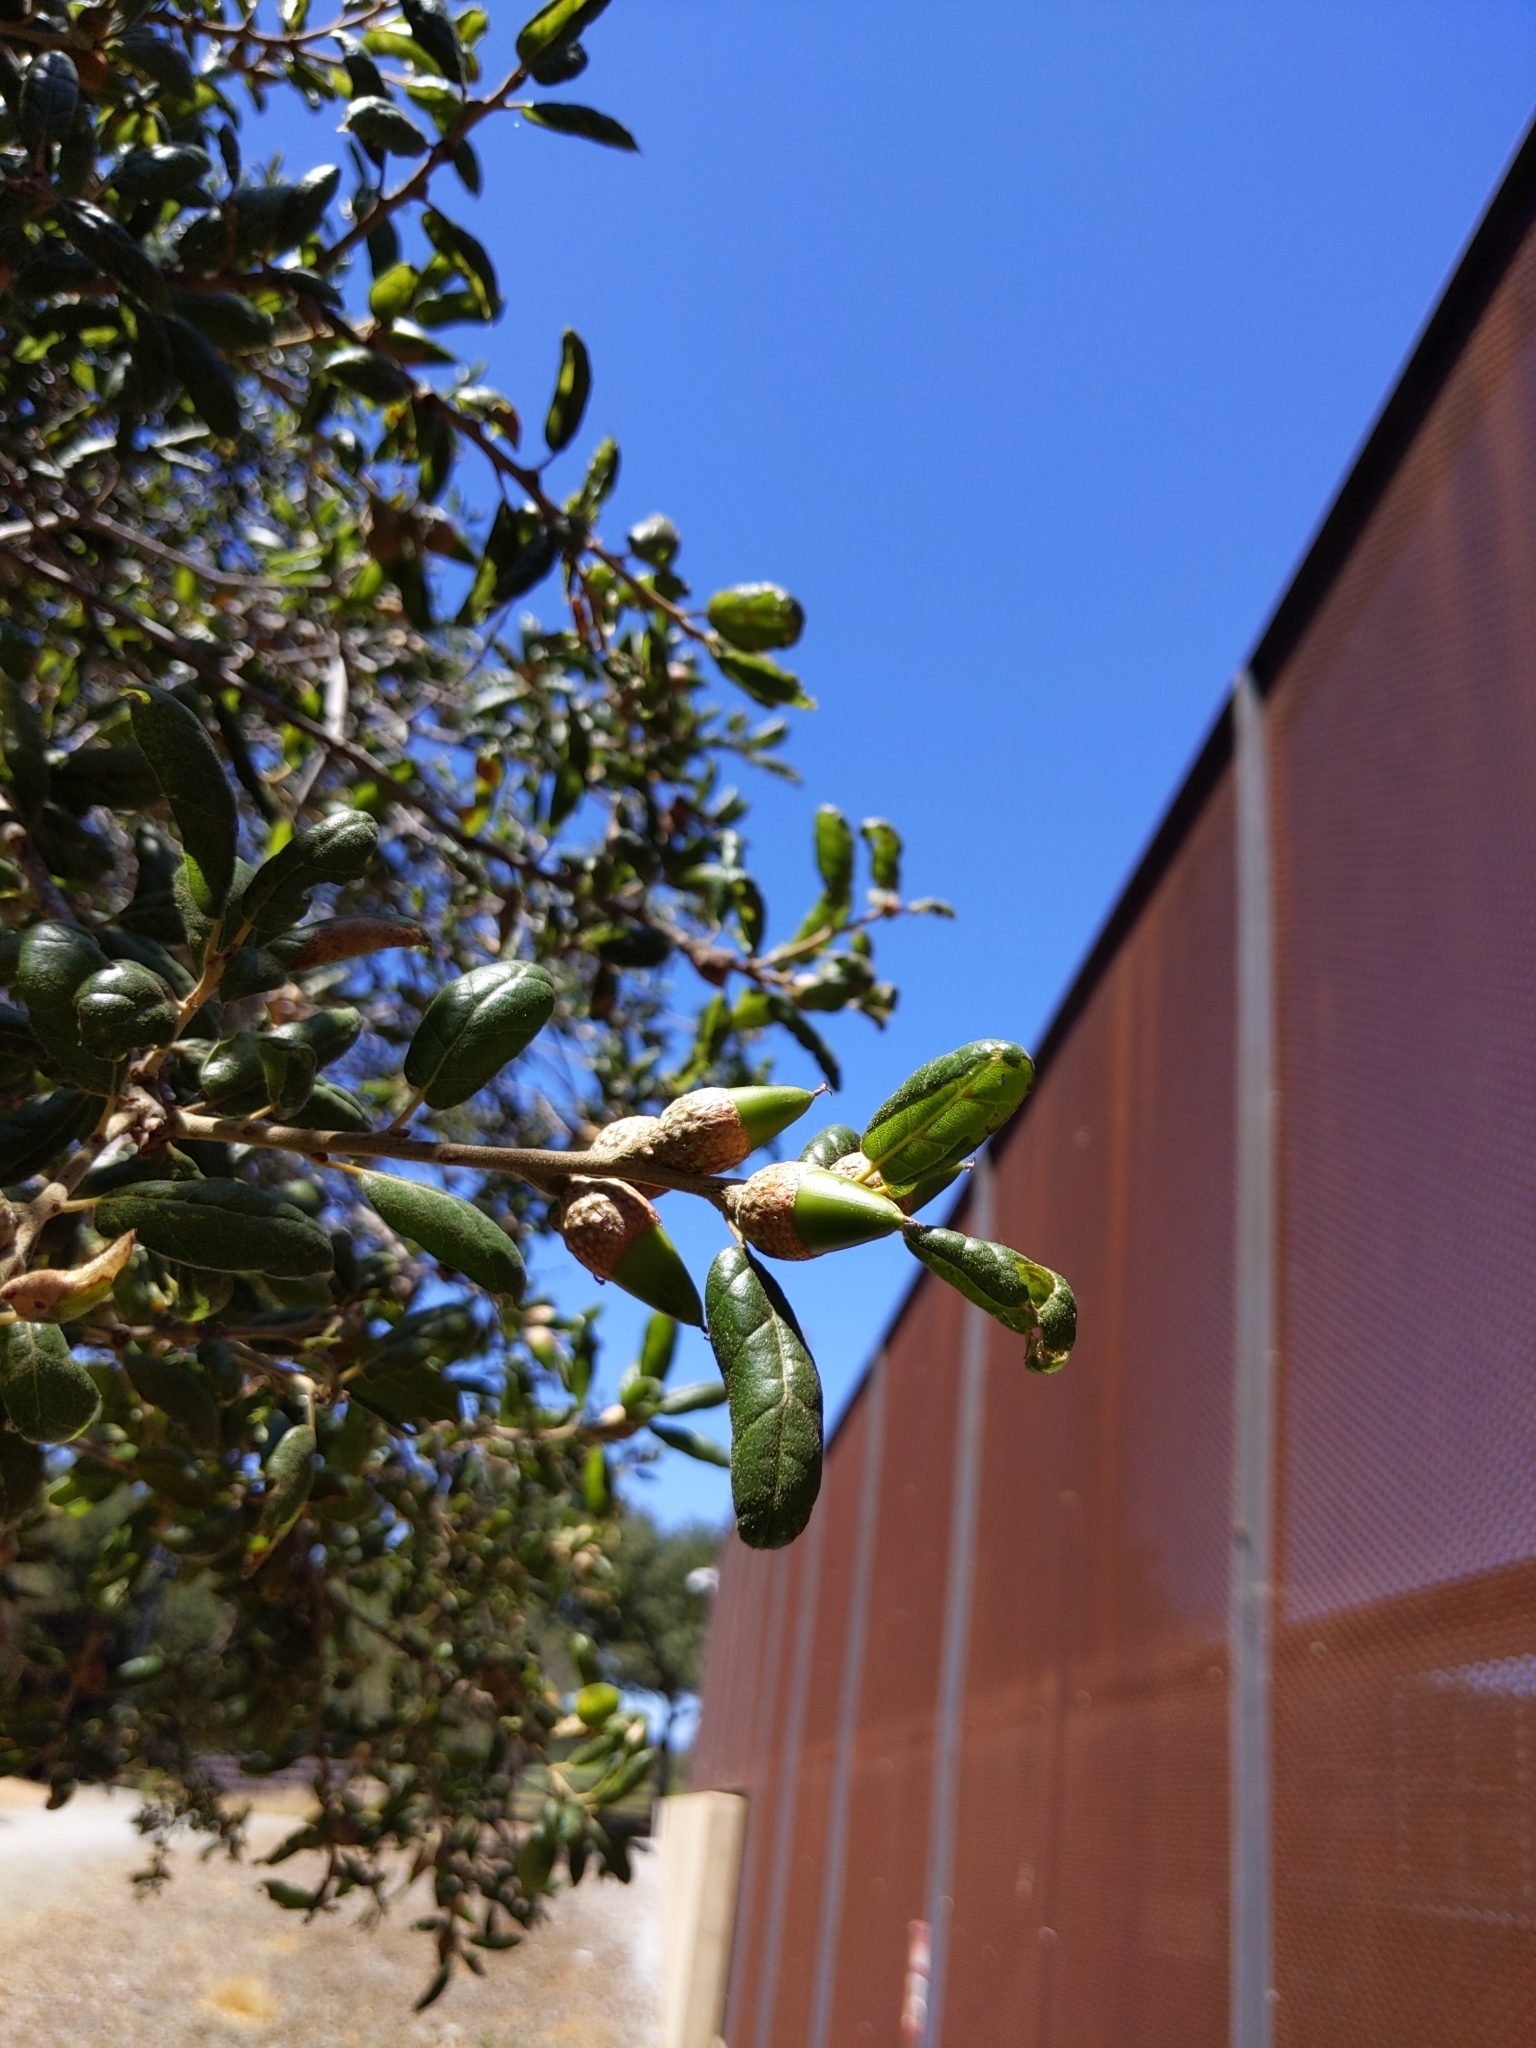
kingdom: Plantae
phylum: Tracheophyta
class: Magnoliopsida
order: Fagales
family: Fagaceae
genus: Quercus
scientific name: Quercus agrifolia
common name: California live oak
